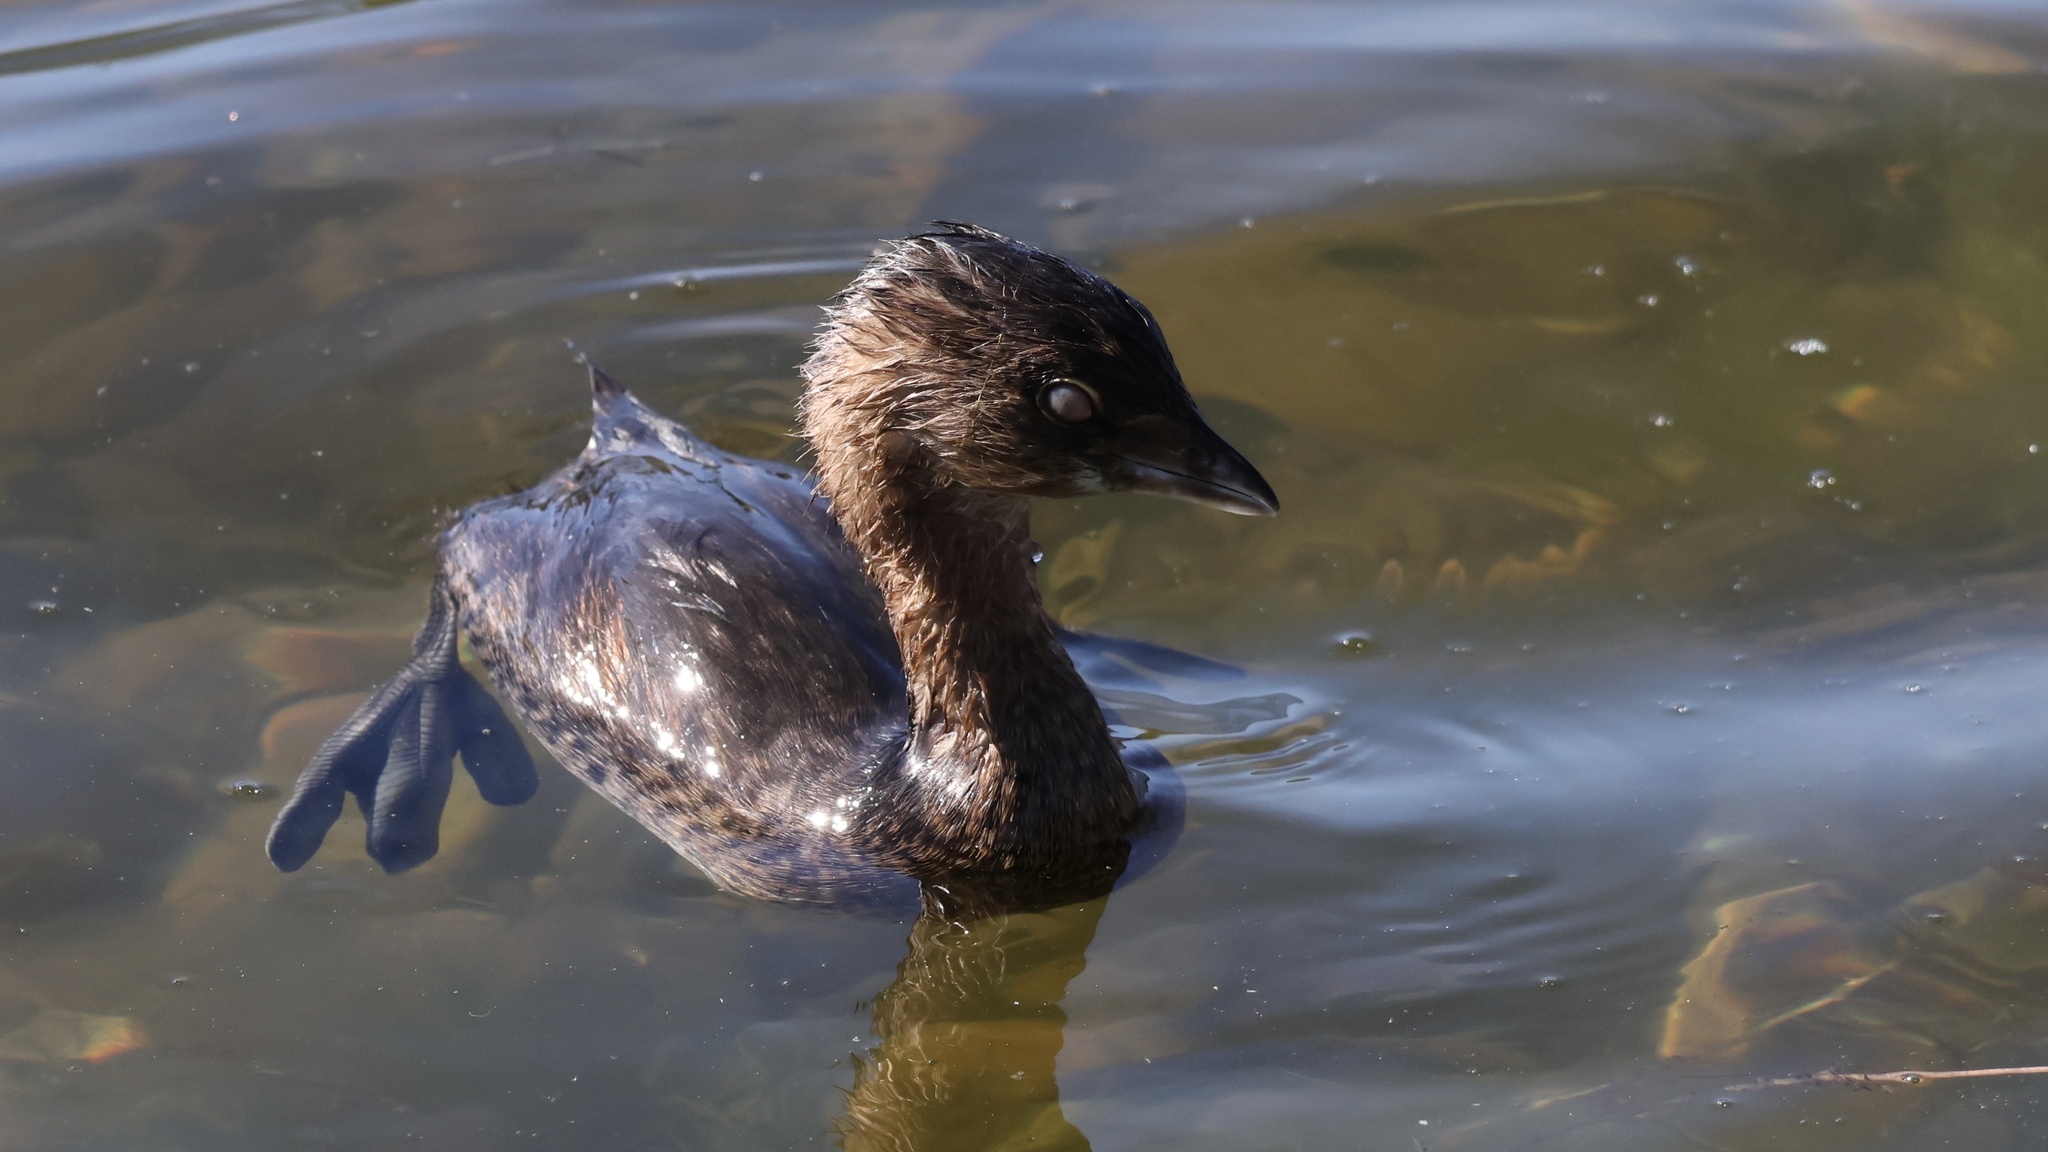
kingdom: Animalia
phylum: Chordata
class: Aves
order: Podicipediformes
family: Podicipedidae
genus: Podilymbus
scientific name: Podilymbus podiceps
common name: Pied-billed grebe
